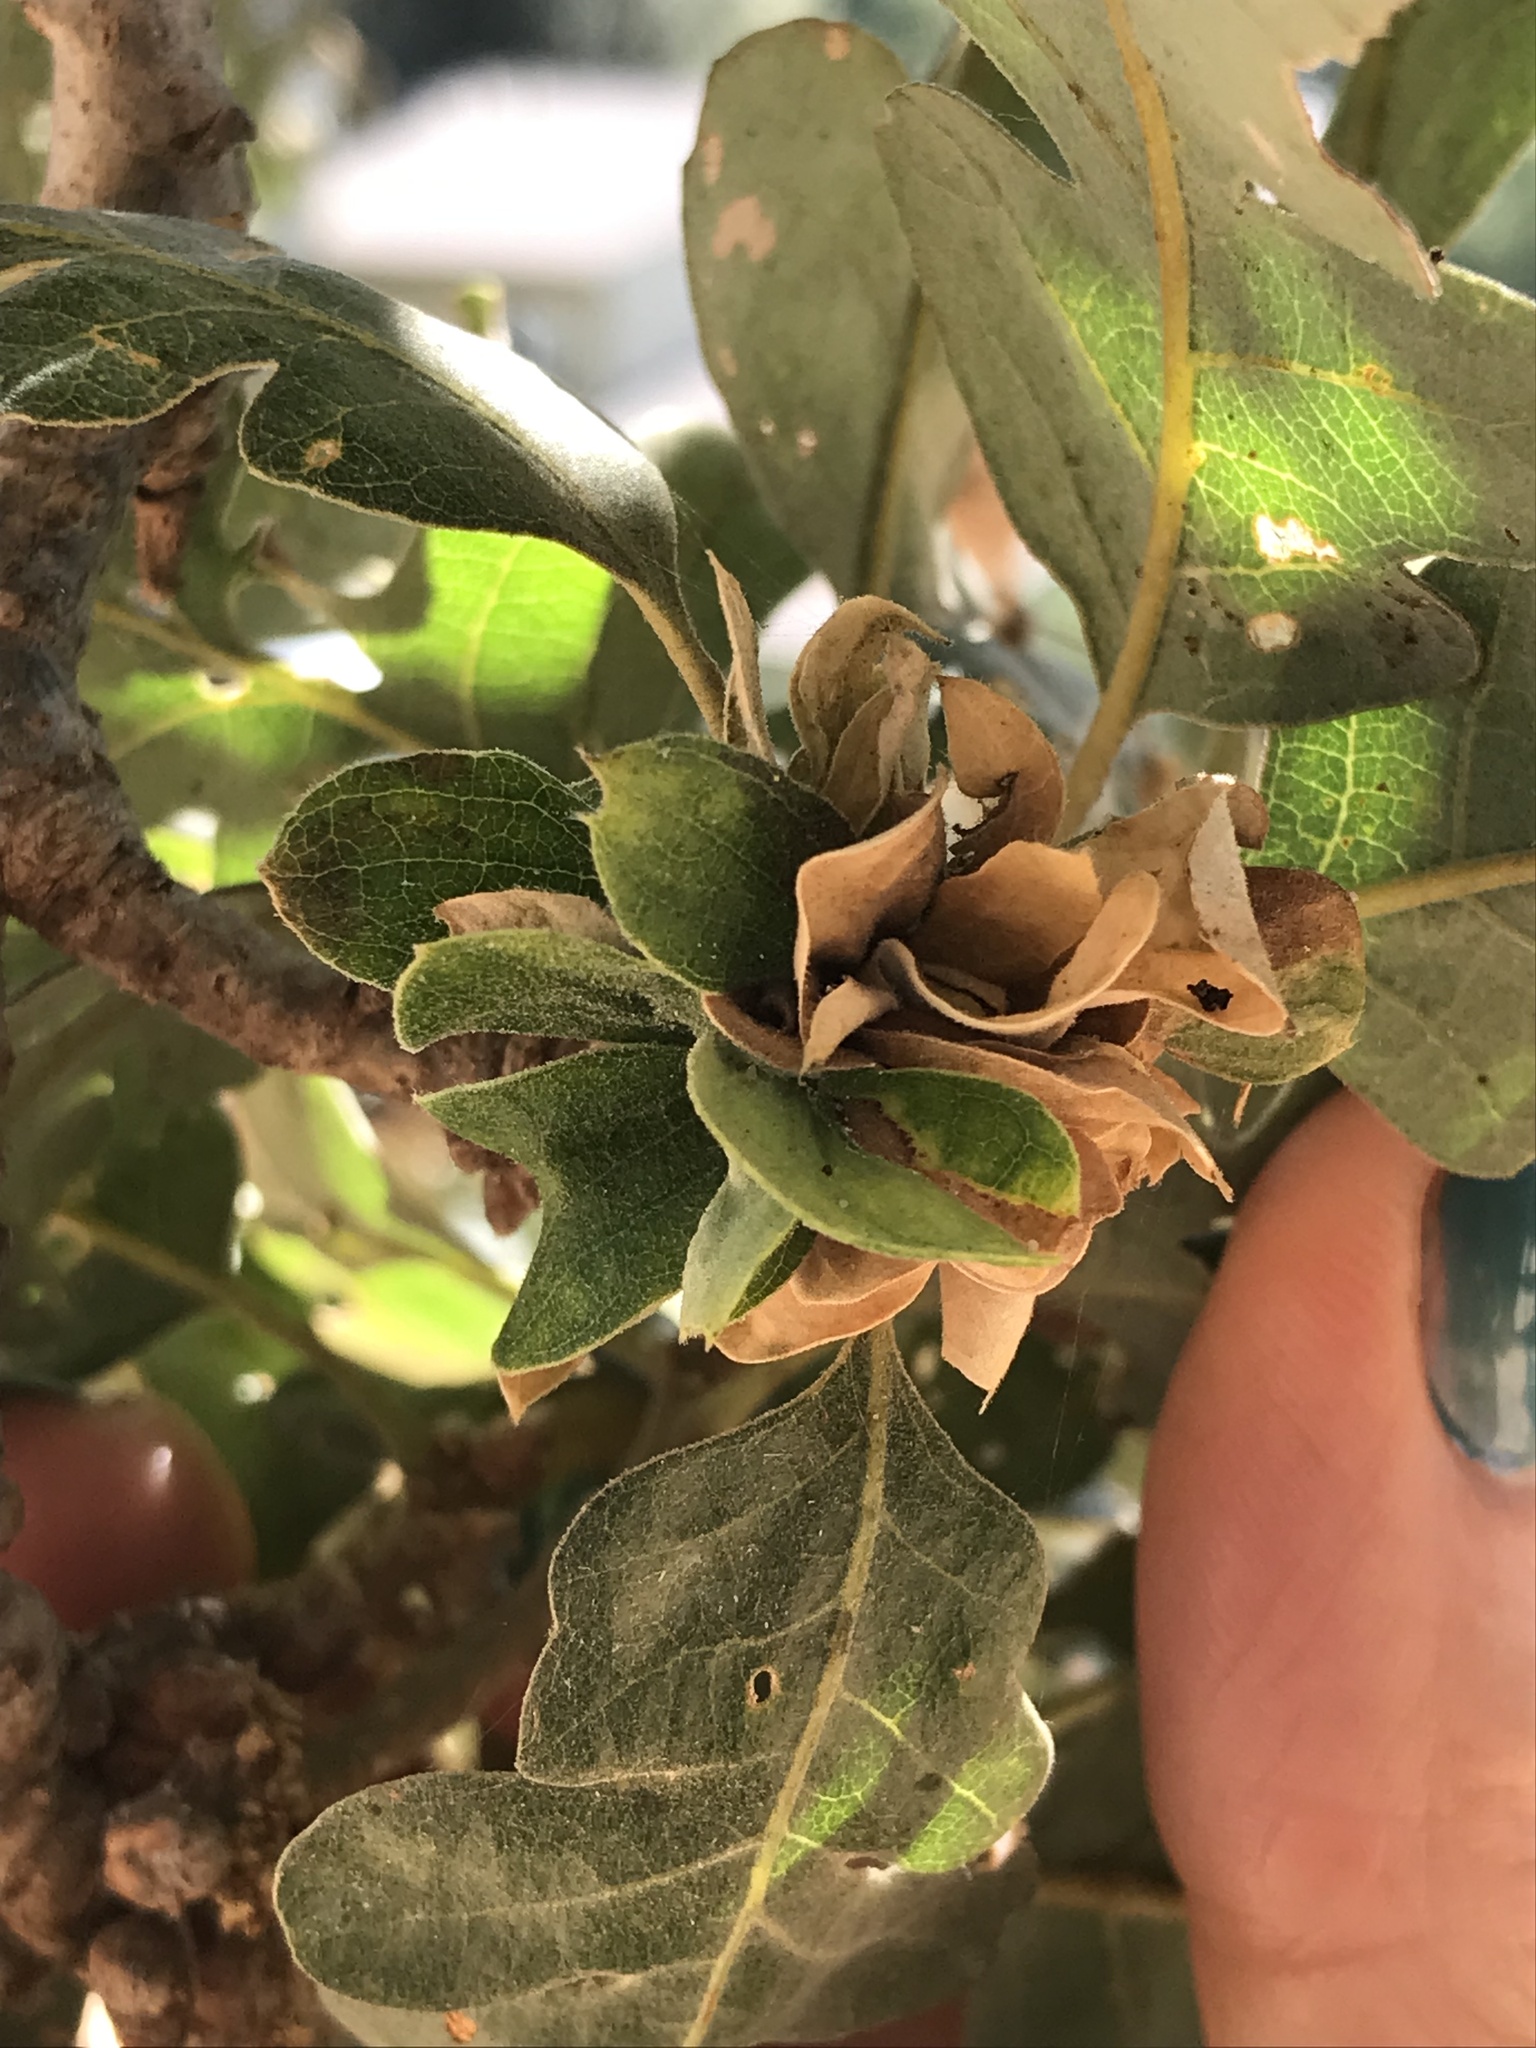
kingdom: Animalia
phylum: Arthropoda
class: Insecta
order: Hymenoptera
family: Cynipidae
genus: Andricus
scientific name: Andricus
